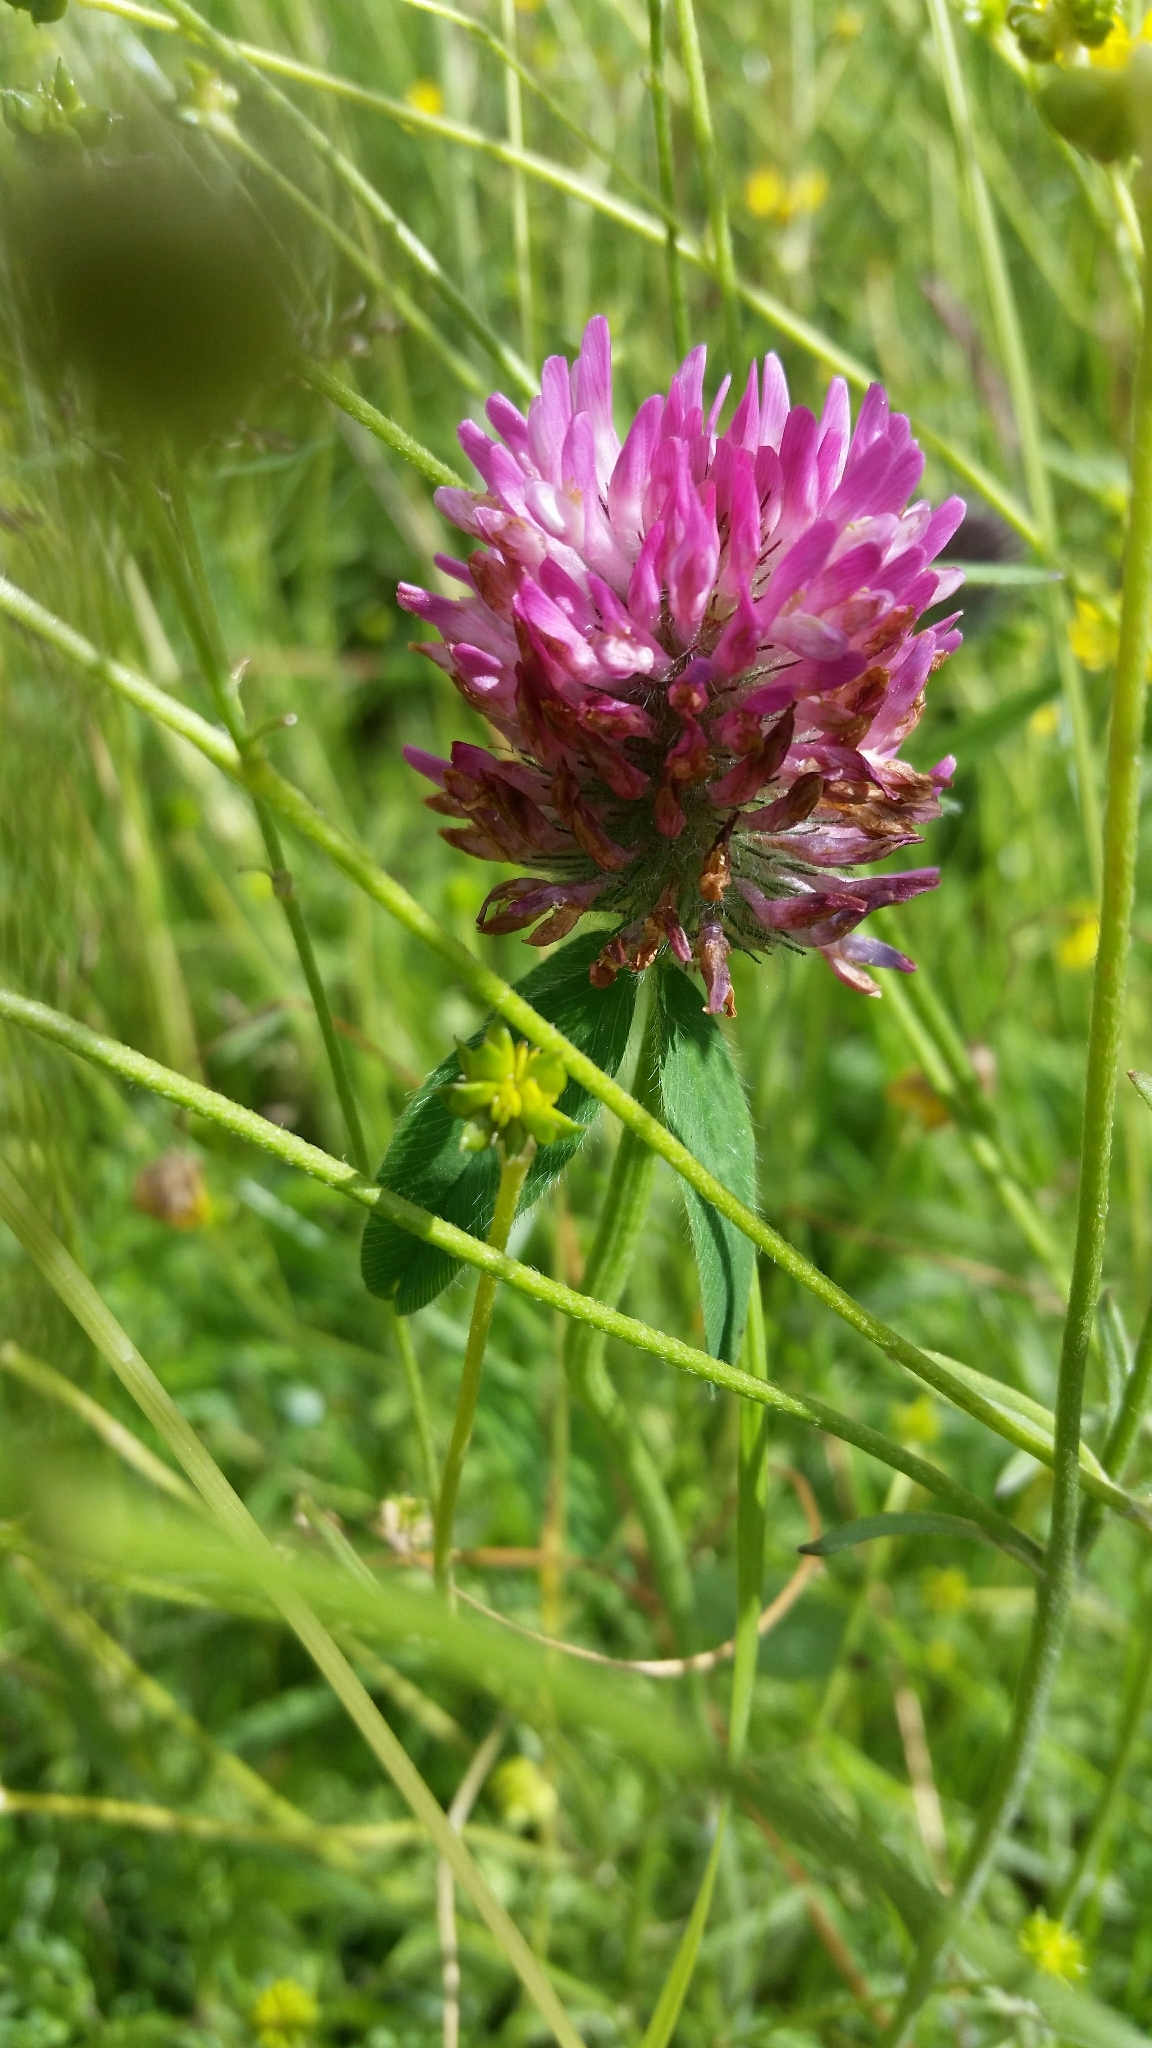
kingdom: Plantae
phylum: Tracheophyta
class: Magnoliopsida
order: Fabales
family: Fabaceae
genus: Trifolium
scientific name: Trifolium pratense
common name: Red clover
